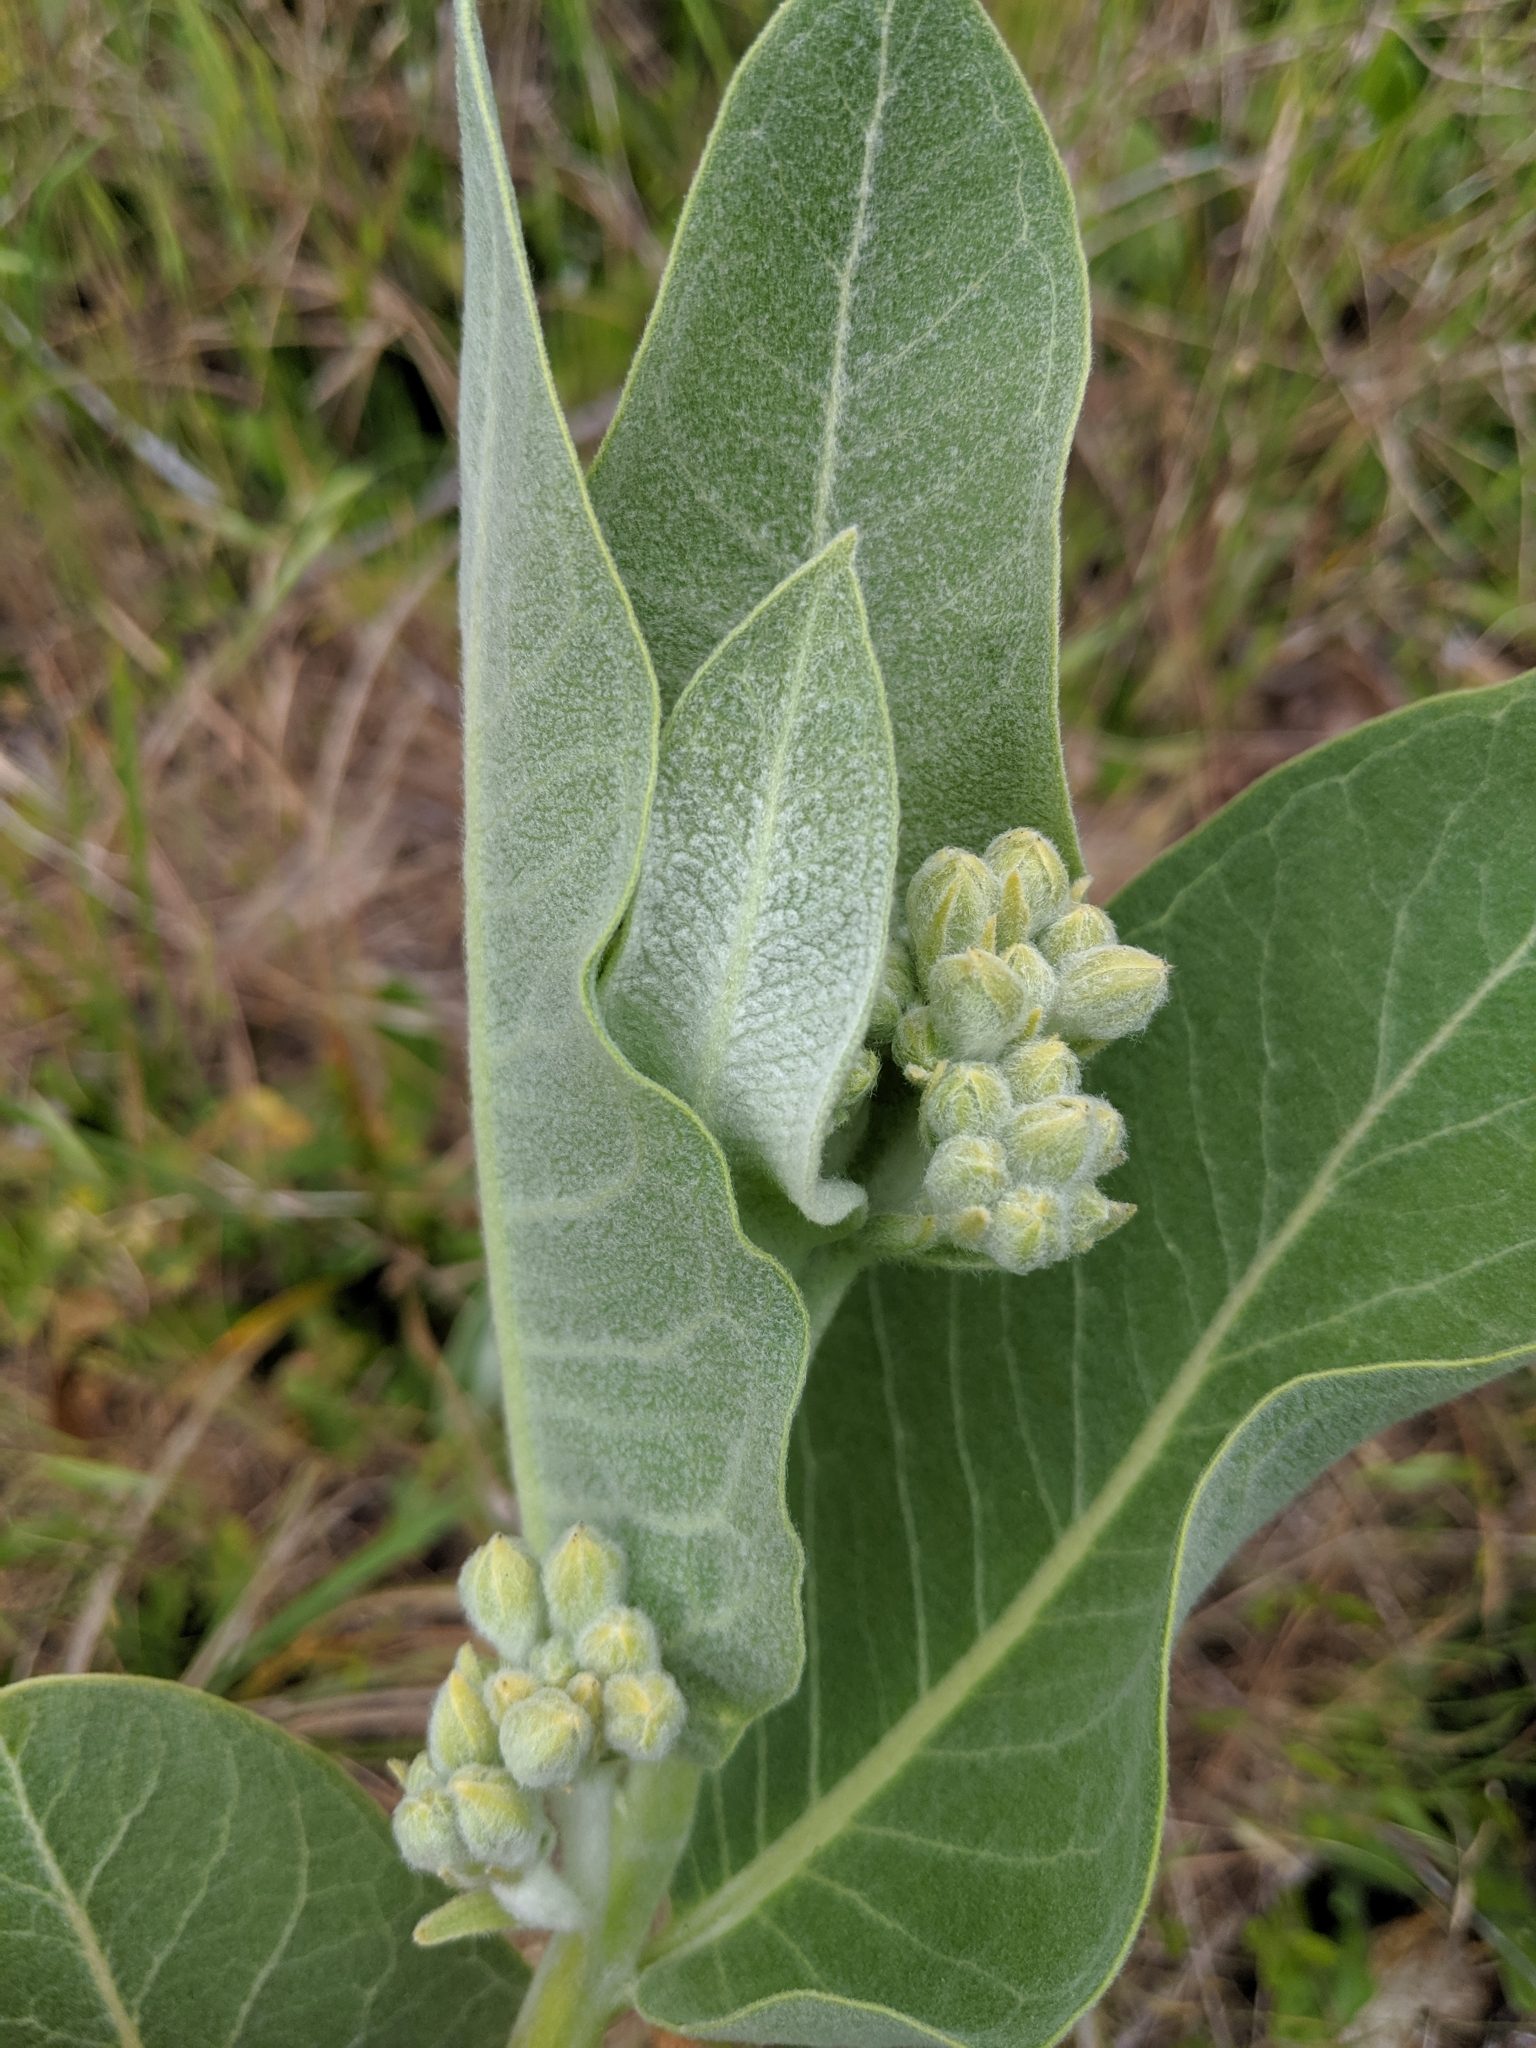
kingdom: Plantae
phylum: Tracheophyta
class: Magnoliopsida
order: Gentianales
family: Apocynaceae
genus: Asclepias
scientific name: Asclepias speciosa
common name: Showy milkweed
